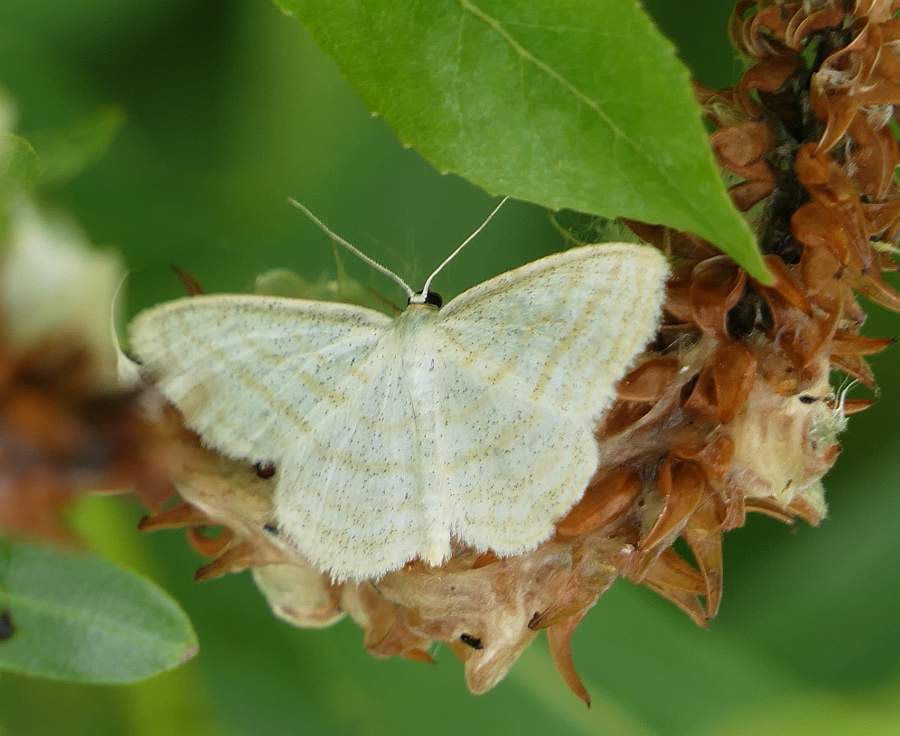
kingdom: Animalia
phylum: Arthropoda
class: Insecta
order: Lepidoptera
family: Geometridae
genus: Scopula
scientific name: Scopula quadrilineata
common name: Four-lined wave moth
